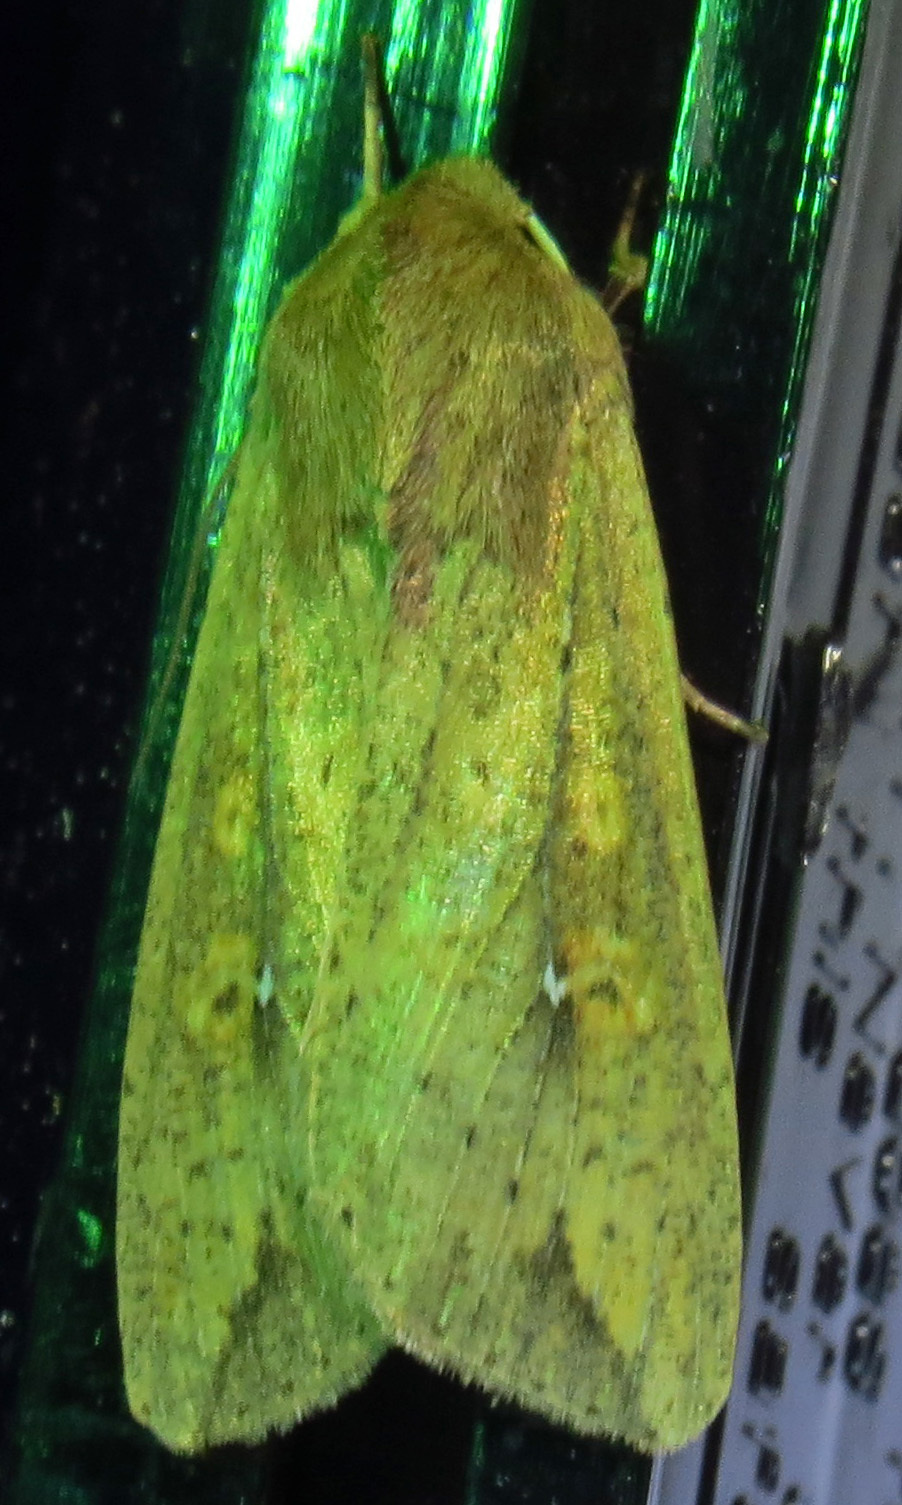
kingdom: Animalia
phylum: Arthropoda
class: Insecta
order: Lepidoptera
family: Noctuidae
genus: Mythimna
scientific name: Mythimna unipuncta
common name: White-speck
